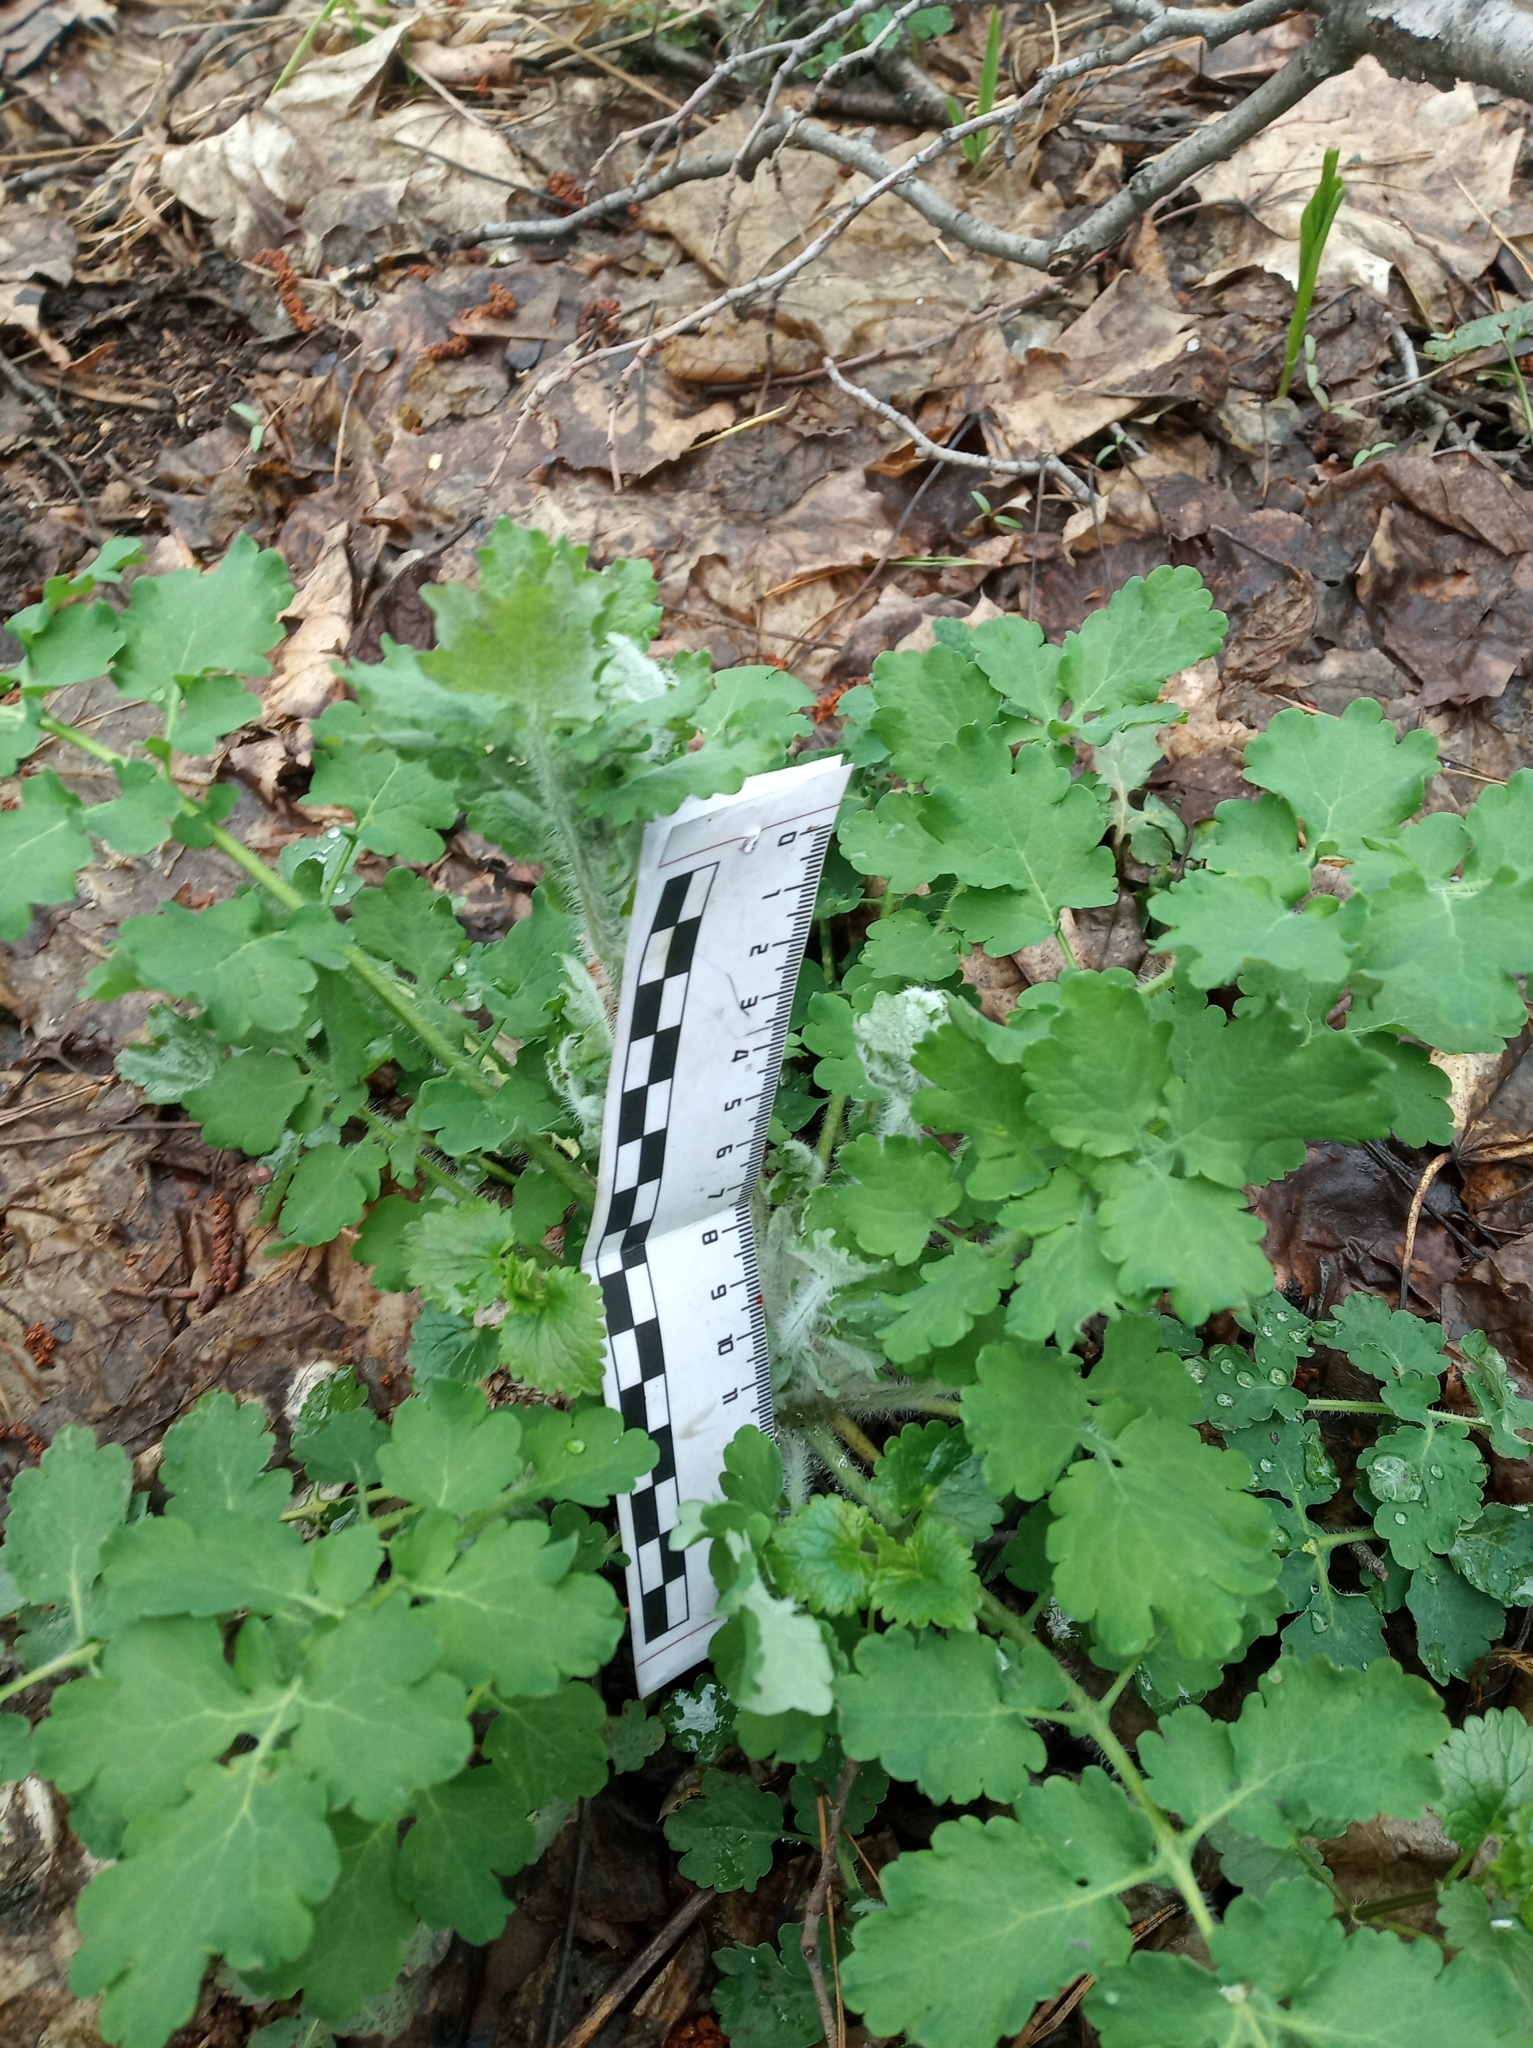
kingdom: Plantae
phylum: Tracheophyta
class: Magnoliopsida
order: Ranunculales
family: Papaveraceae
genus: Chelidonium
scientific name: Chelidonium majus
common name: Greater celandine
